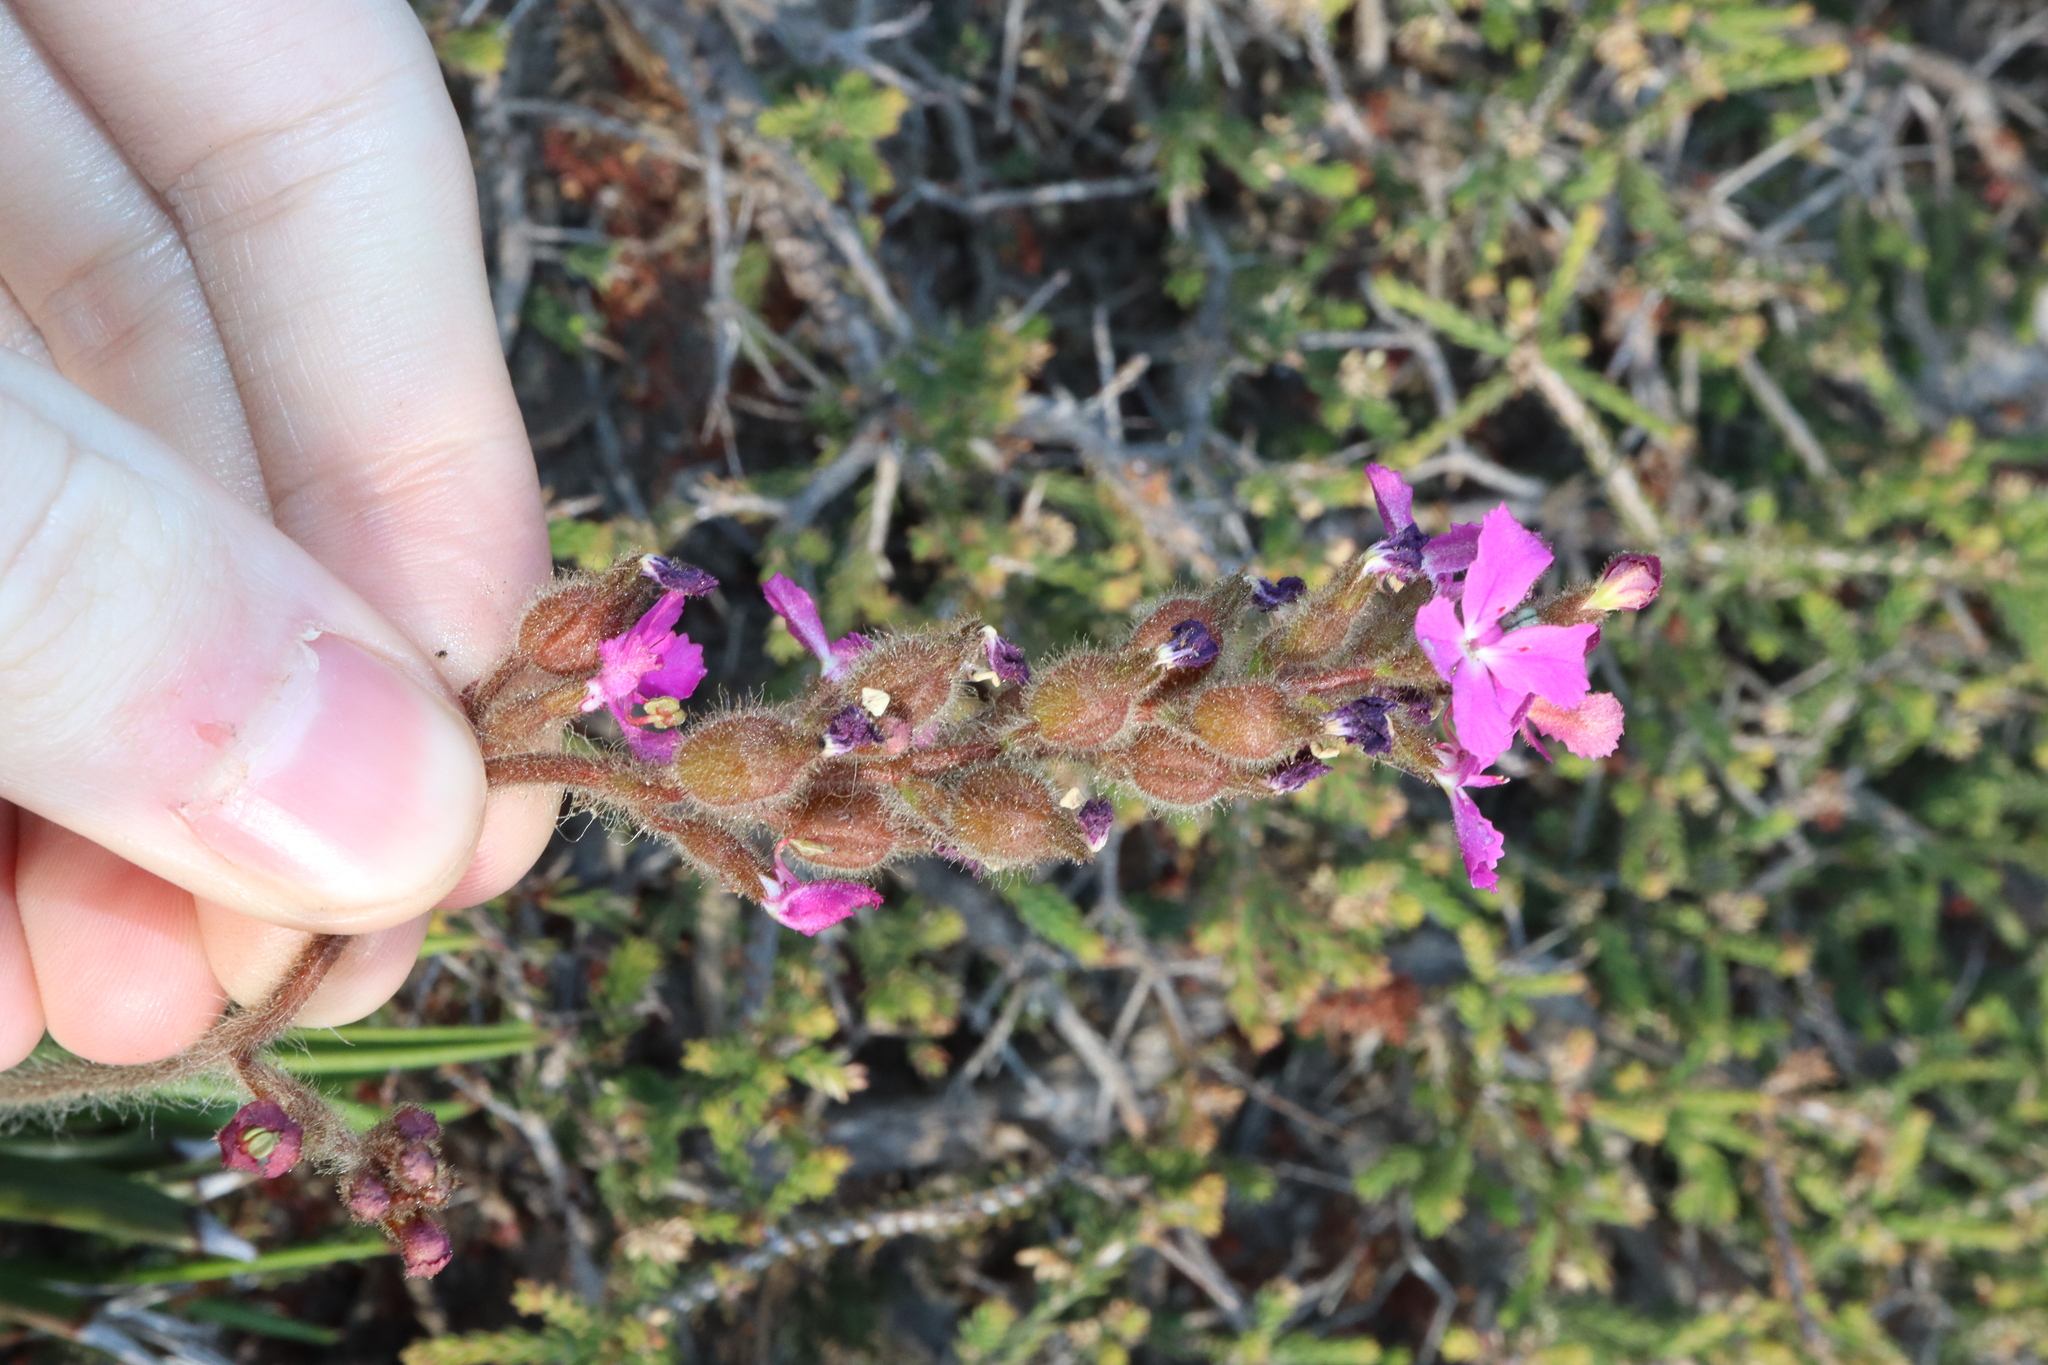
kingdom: Plantae
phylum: Tracheophyta
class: Magnoliopsida
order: Asterales
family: Stylidiaceae
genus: Stylidium
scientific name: Stylidium albomontis
